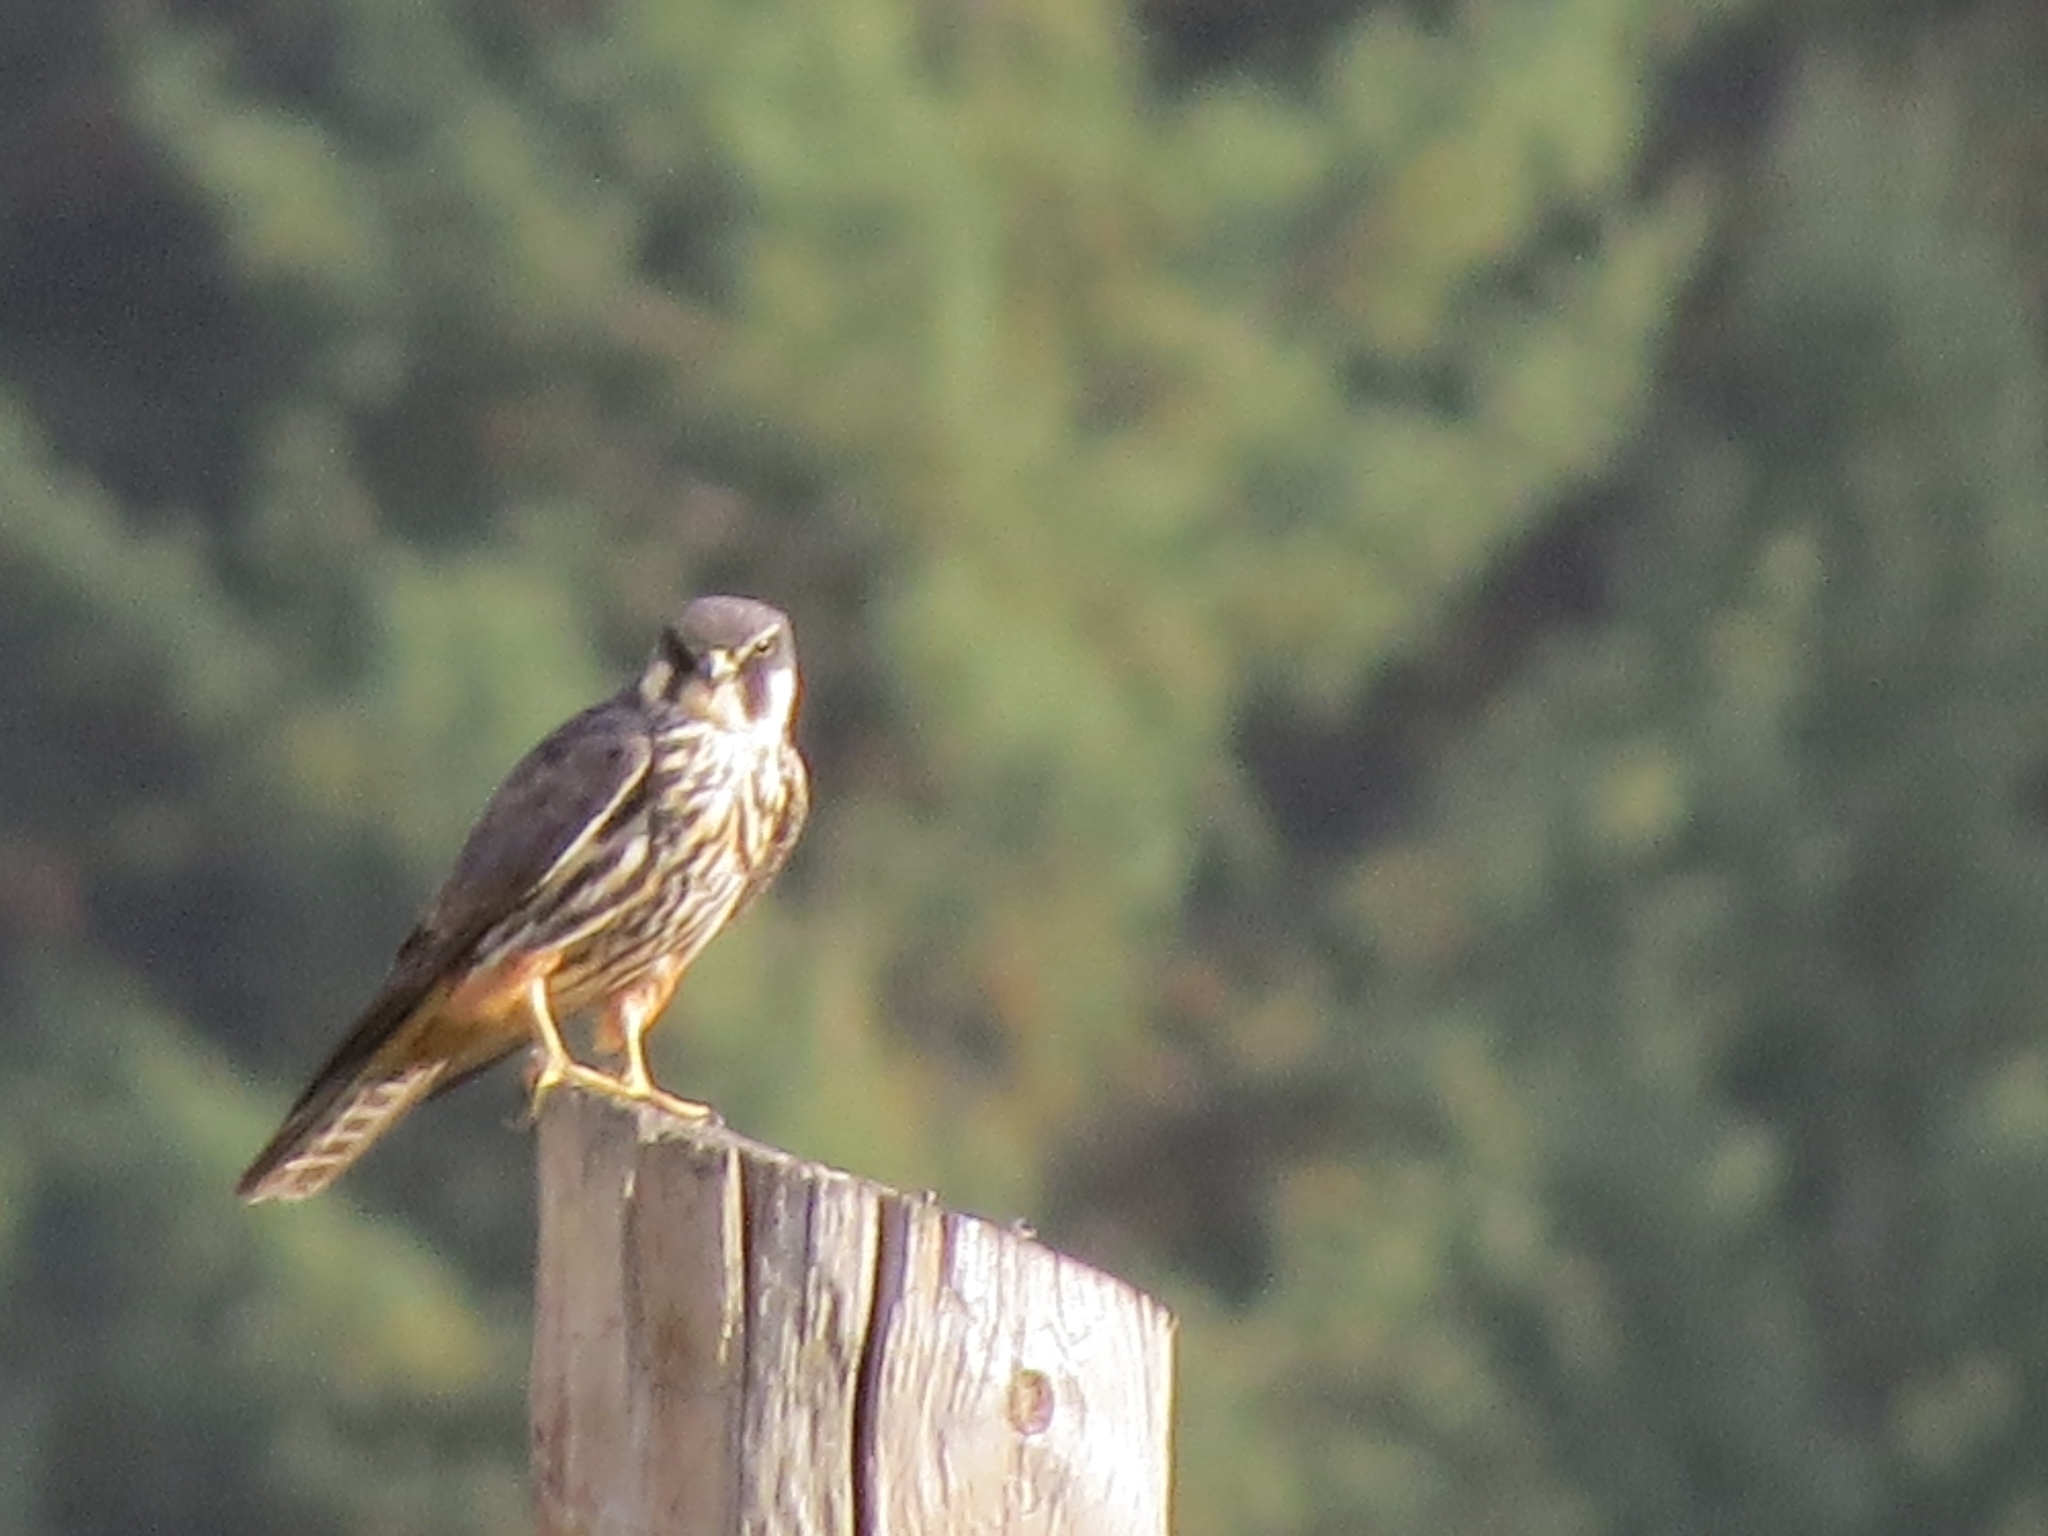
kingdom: Animalia
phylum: Chordata
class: Aves
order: Falconiformes
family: Falconidae
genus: Falco
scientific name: Falco subbuteo
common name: Eurasian hobby
